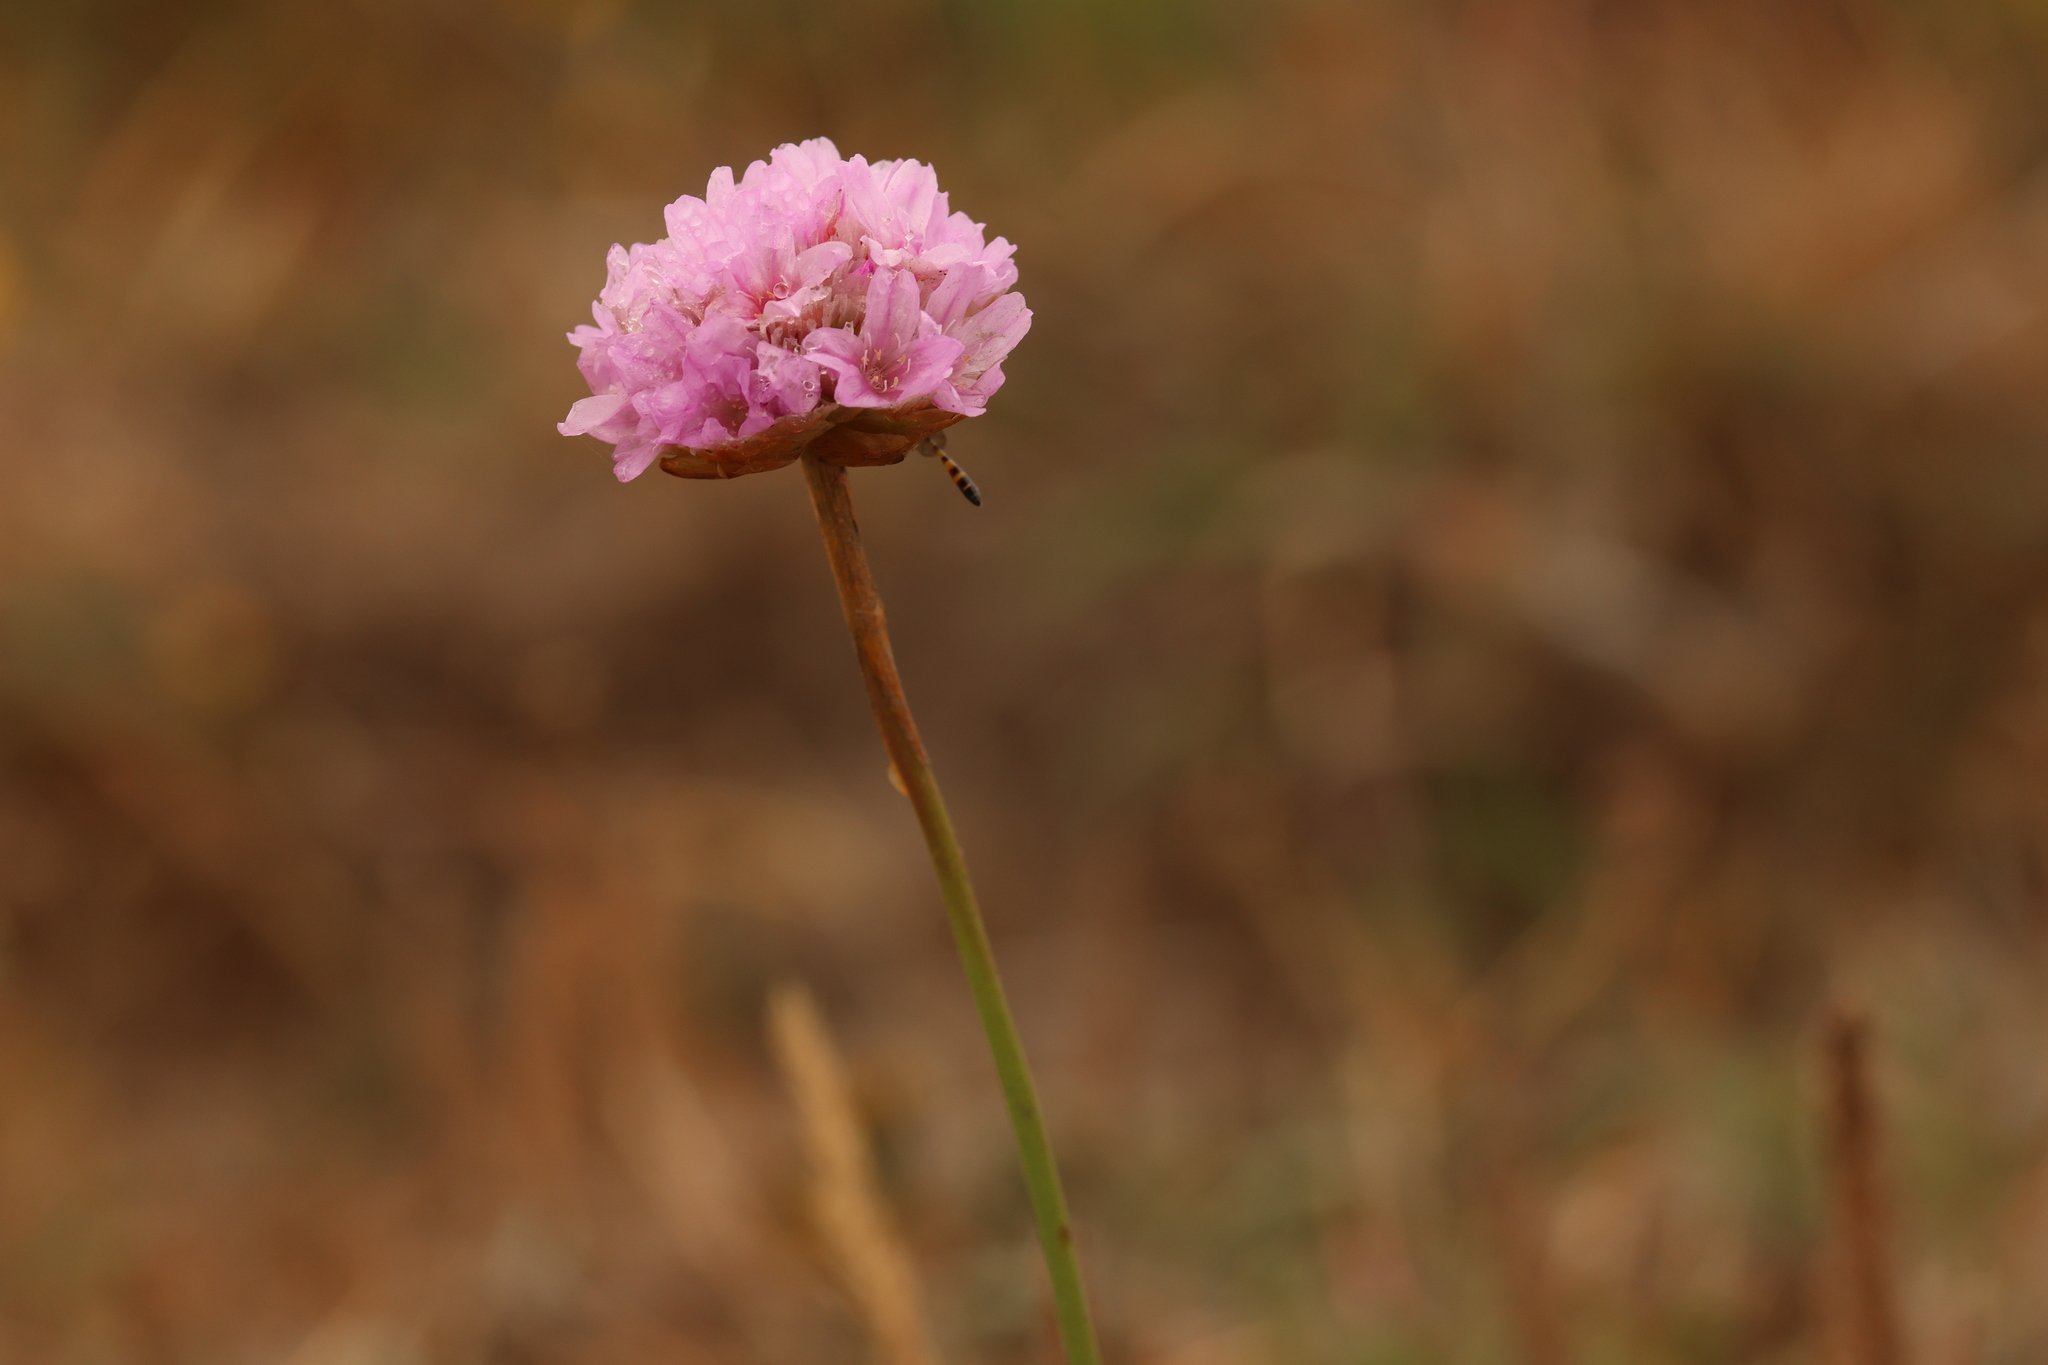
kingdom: Plantae
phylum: Tracheophyta
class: Magnoliopsida
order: Caryophyllales
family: Plumbaginaceae
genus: Armeria
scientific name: Armeria maritima
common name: Thrift
